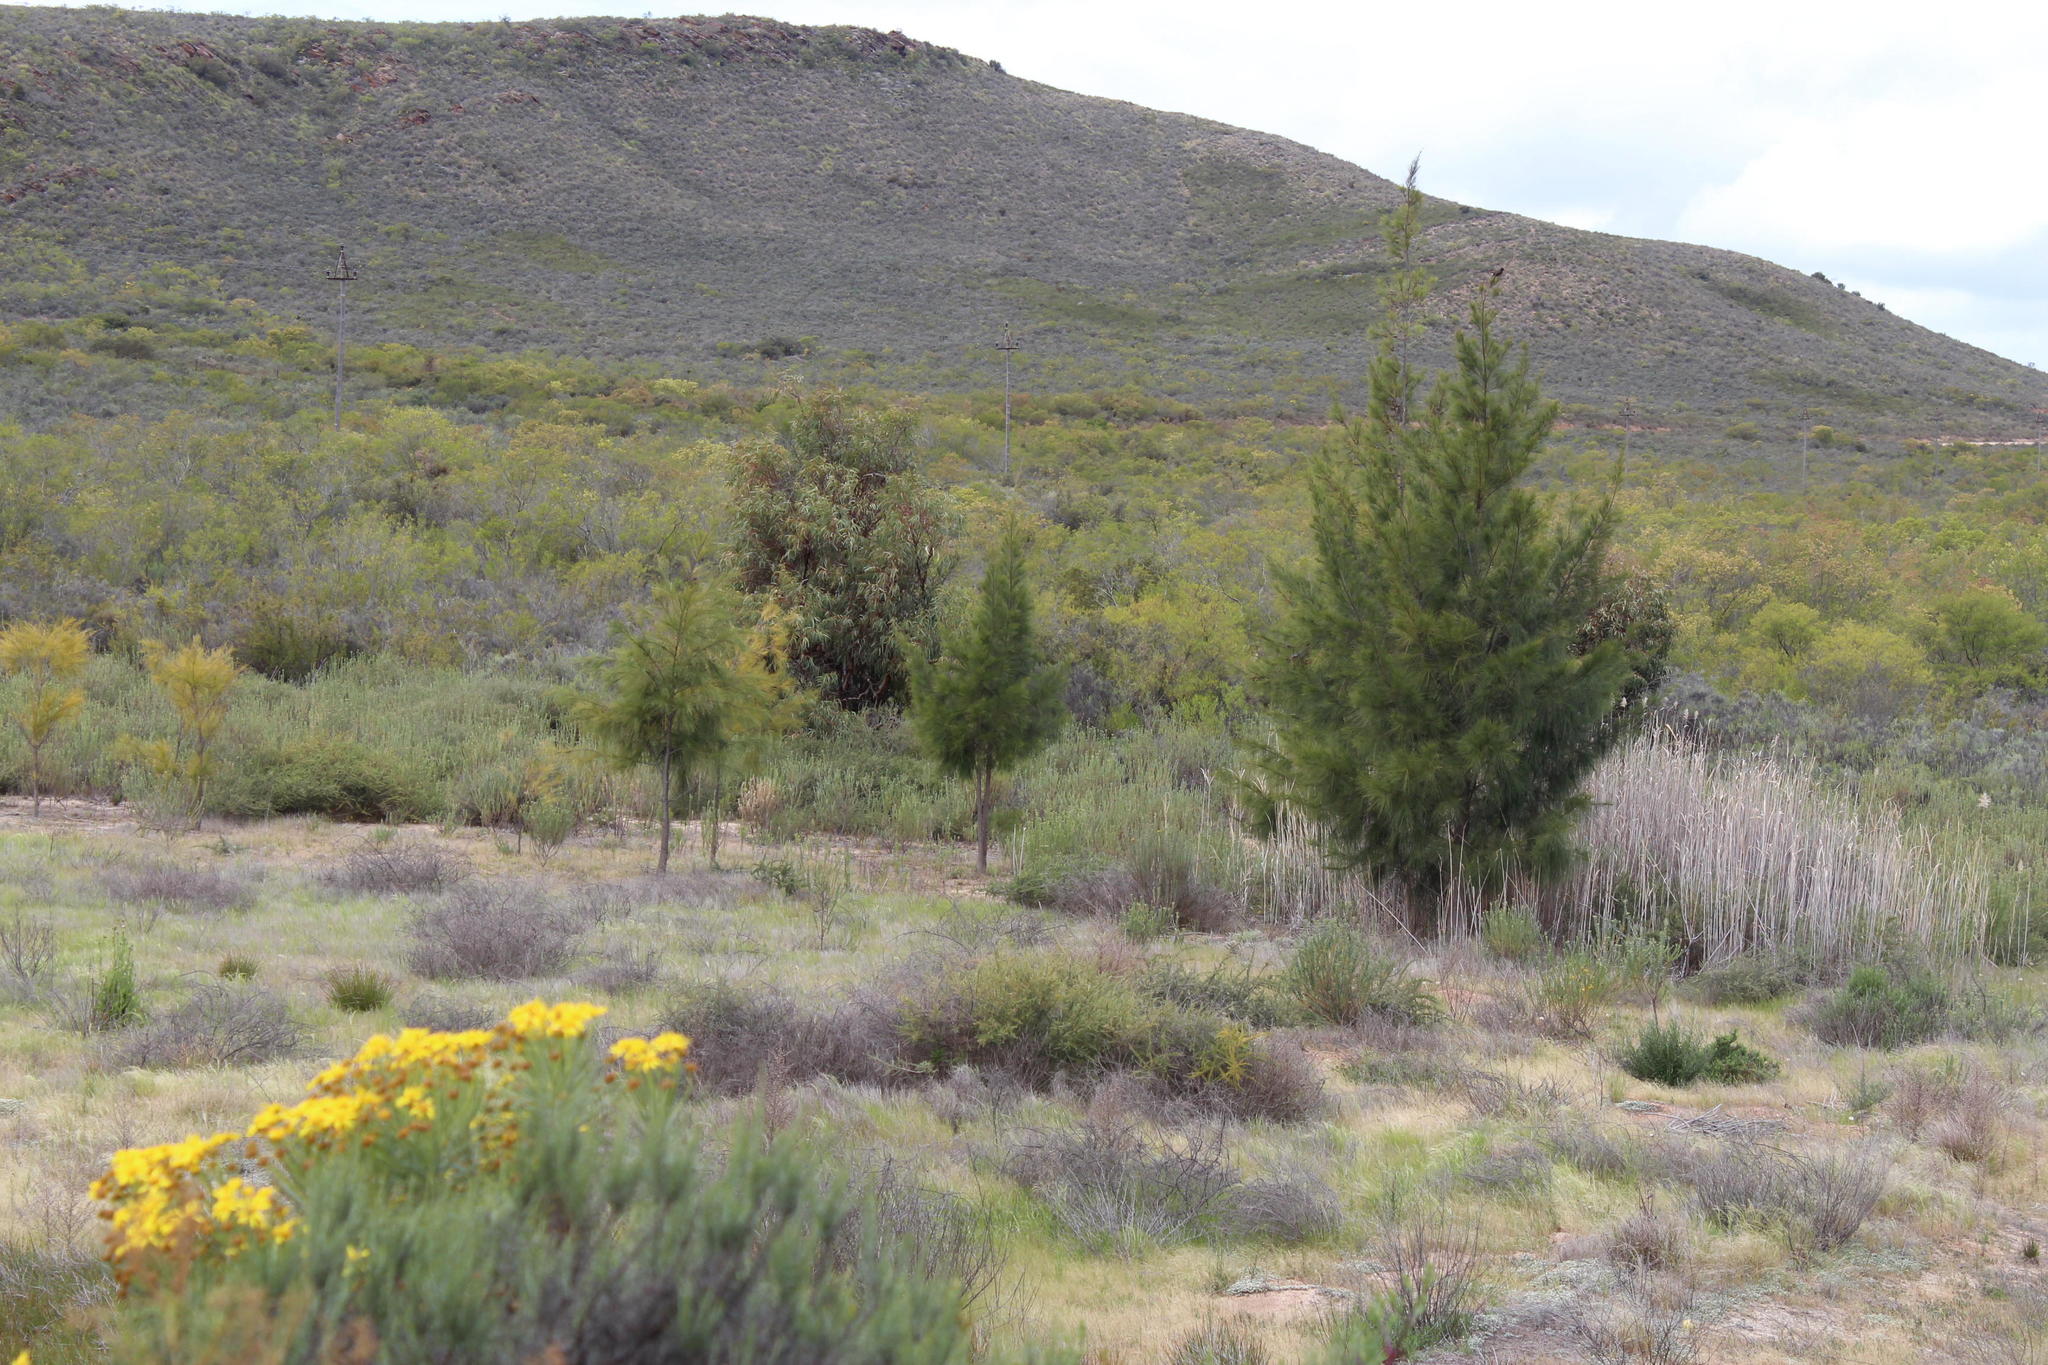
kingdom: Plantae
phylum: Tracheophyta
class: Magnoliopsida
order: Fagales
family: Casuarinaceae
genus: Casuarina
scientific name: Casuarina cunninghamiana
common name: River sheoak
